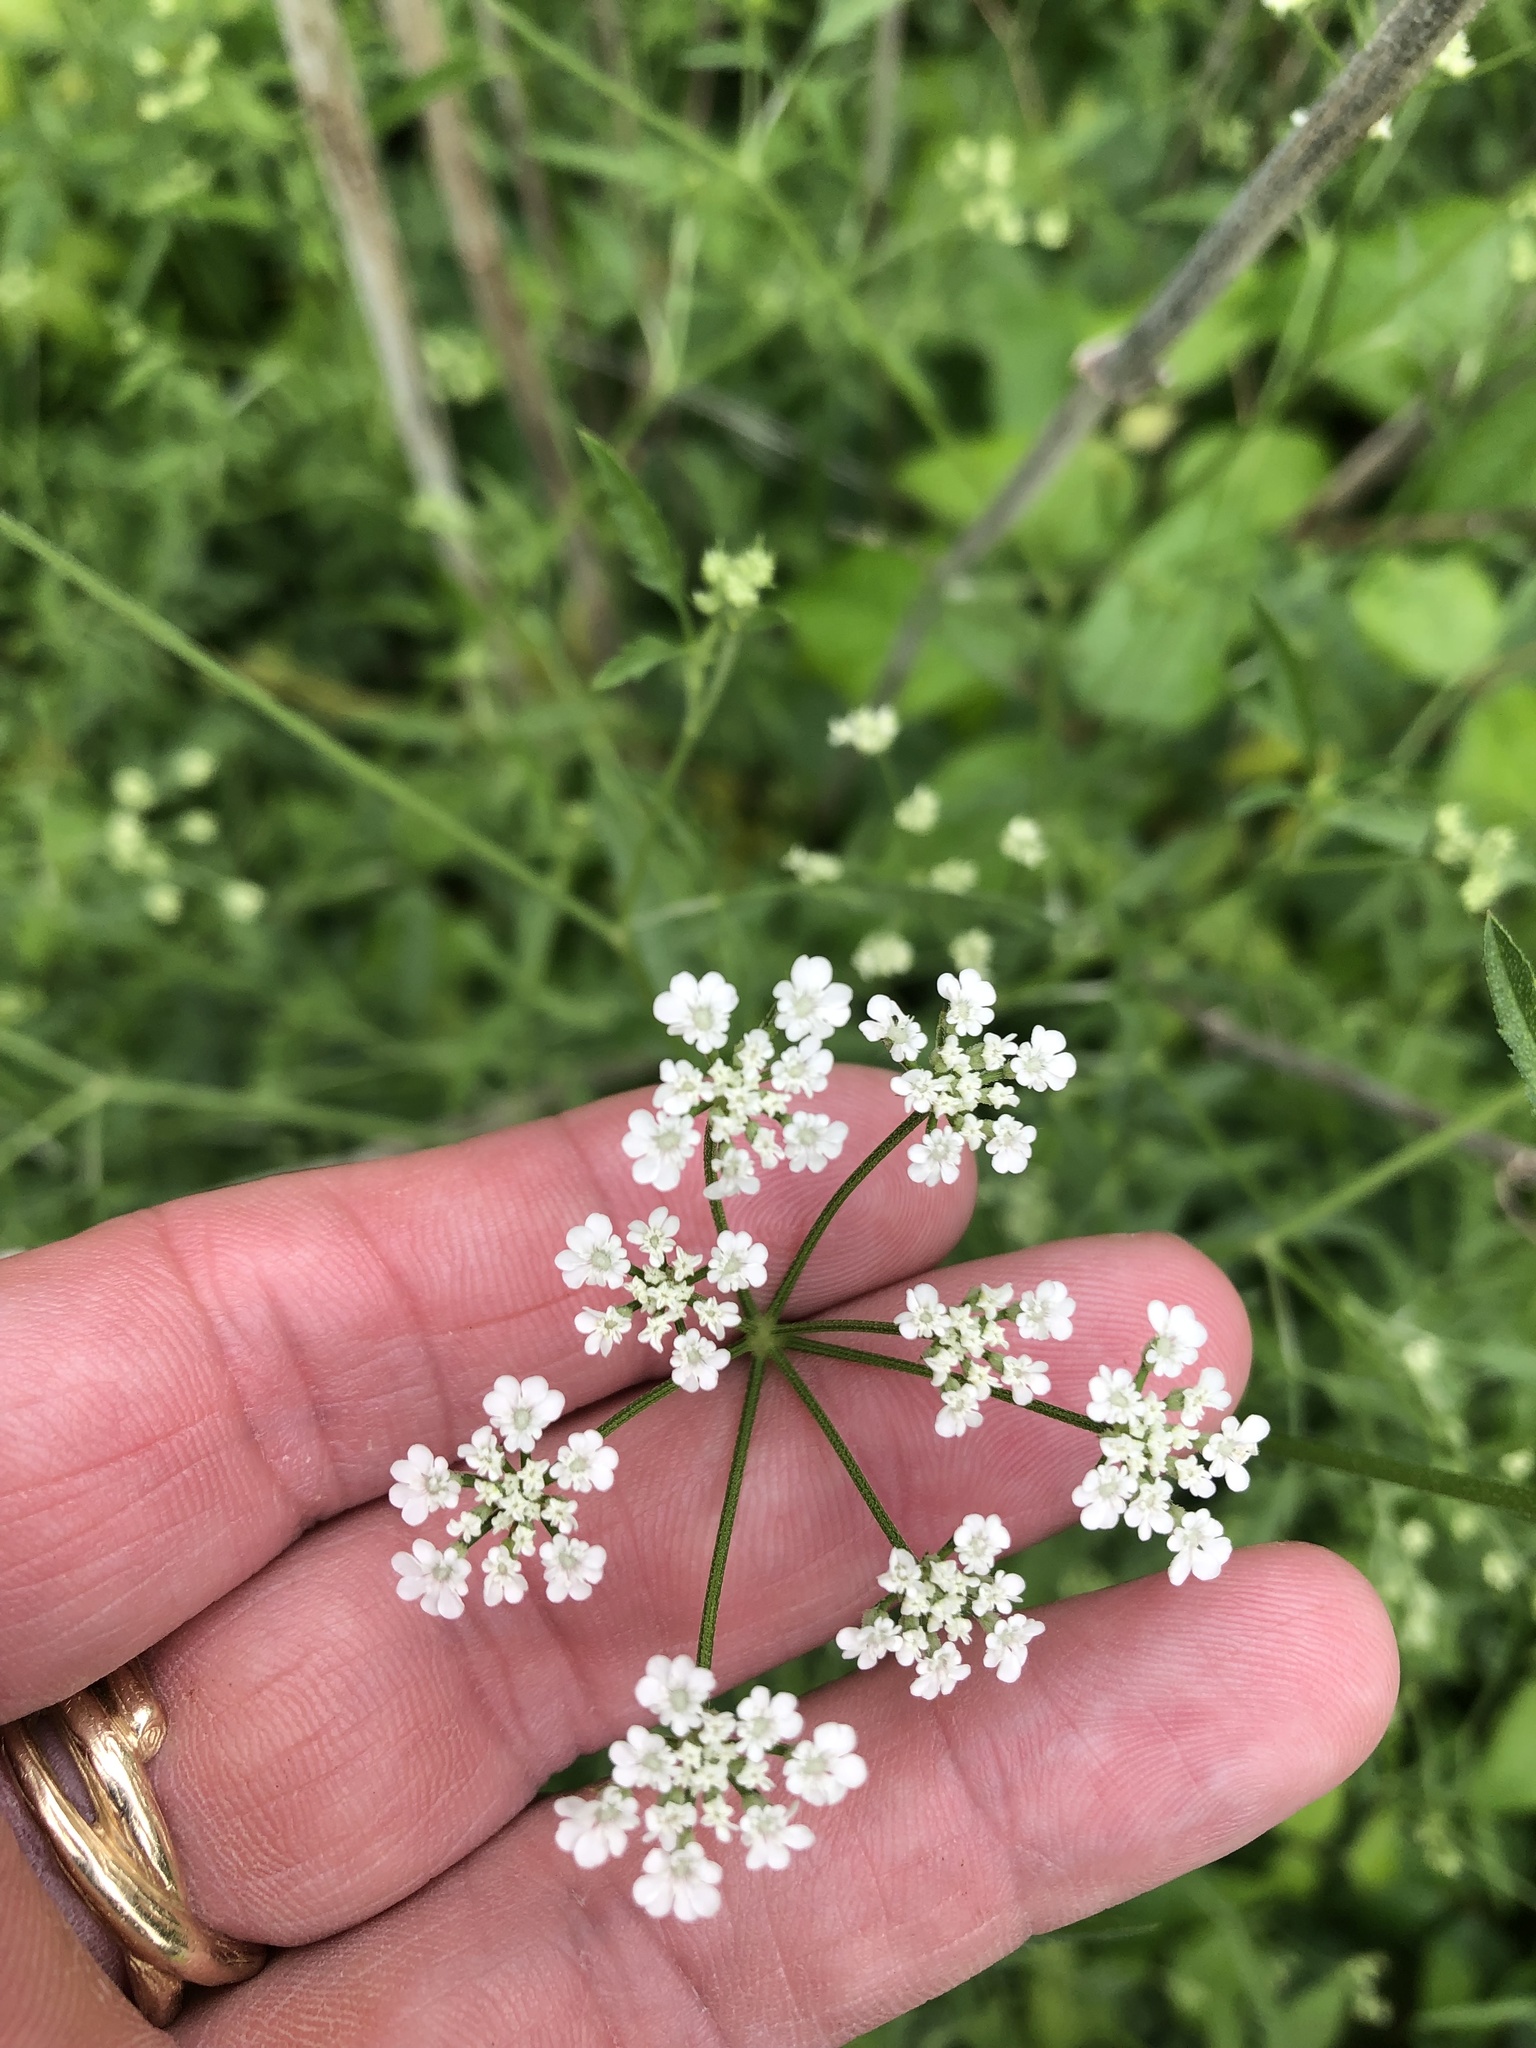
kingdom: Plantae
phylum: Tracheophyta
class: Magnoliopsida
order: Apiales
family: Apiaceae
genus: Torilis
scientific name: Torilis arvensis
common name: Spreading hedge-parsley
